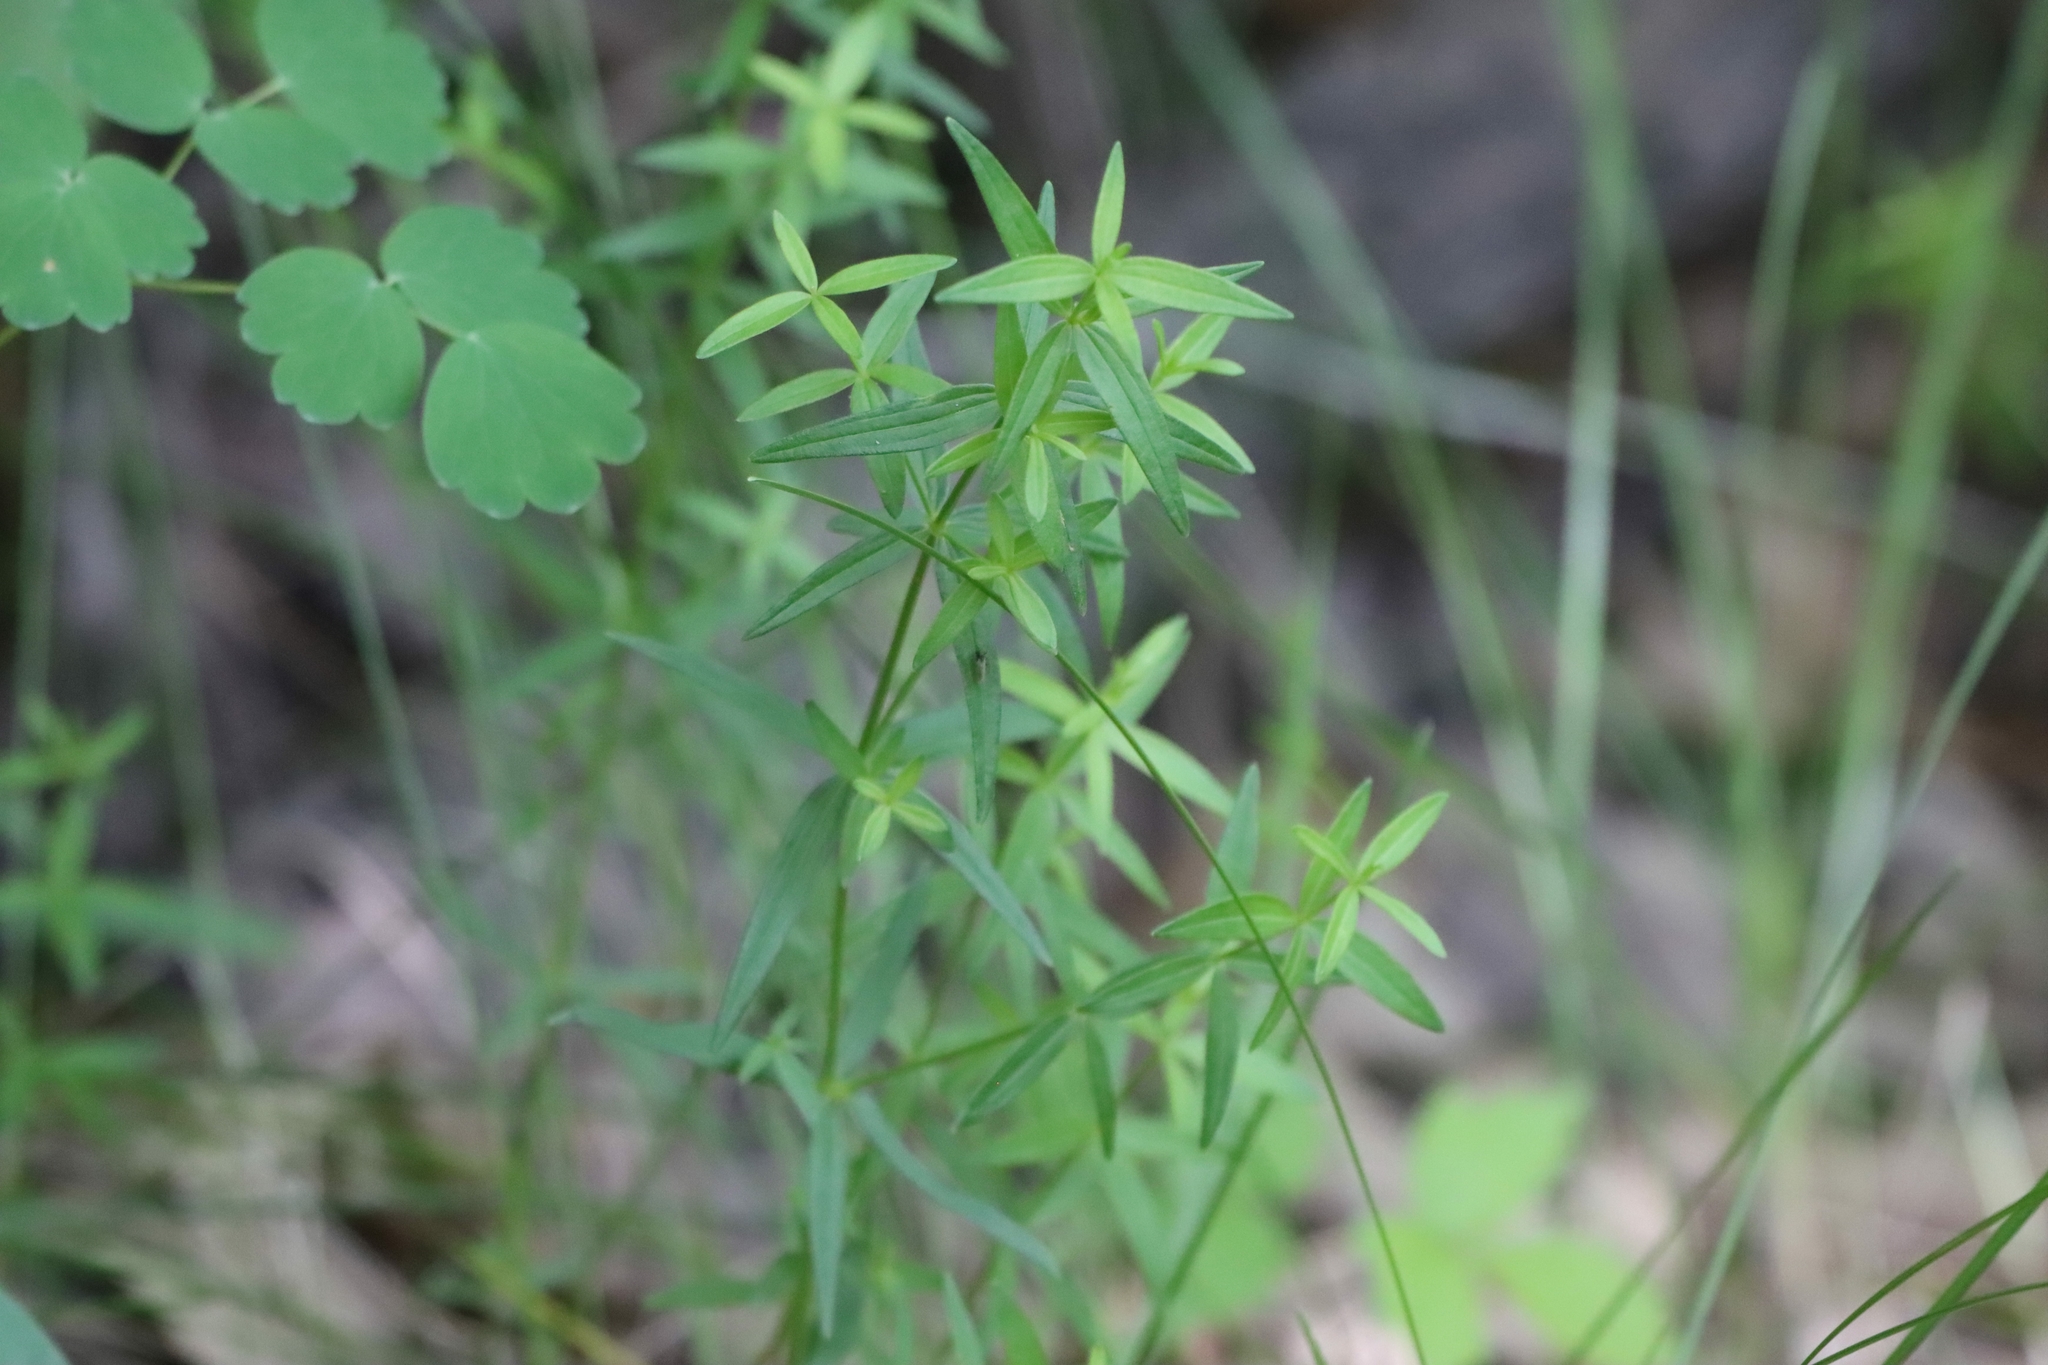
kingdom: Plantae
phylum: Tracheophyta
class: Magnoliopsida
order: Gentianales
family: Rubiaceae
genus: Galium
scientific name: Galium boreale
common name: Northern bedstraw
